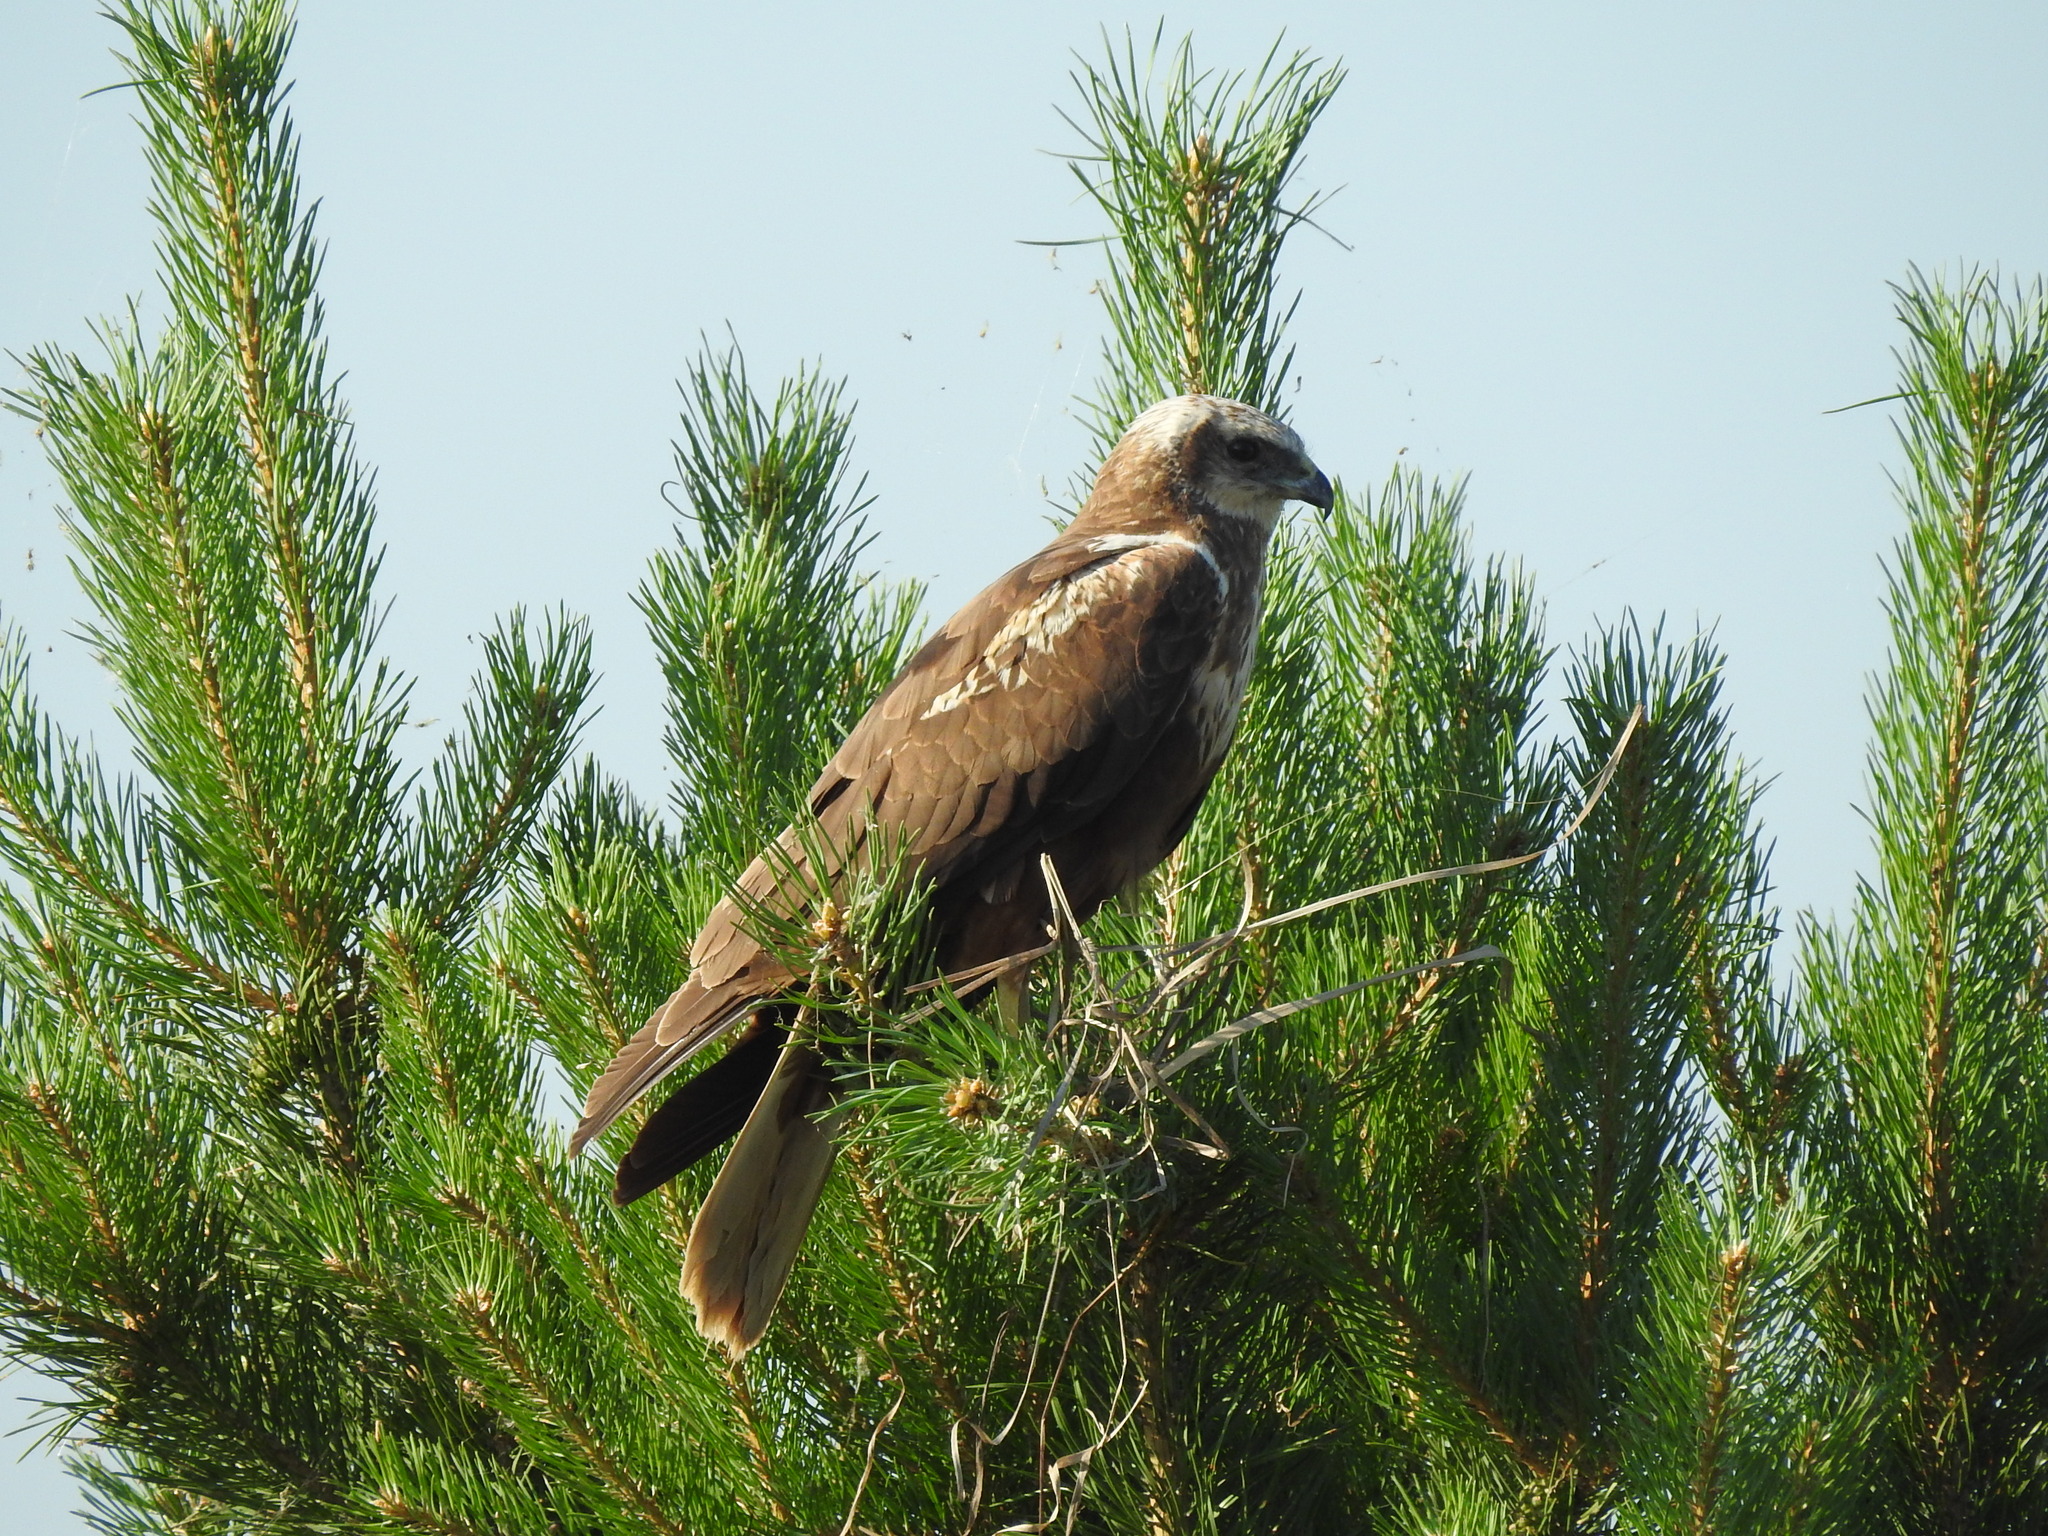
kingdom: Animalia
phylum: Chordata
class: Aves
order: Accipitriformes
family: Accipitridae
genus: Circus
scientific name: Circus aeruginosus
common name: Western marsh harrier
